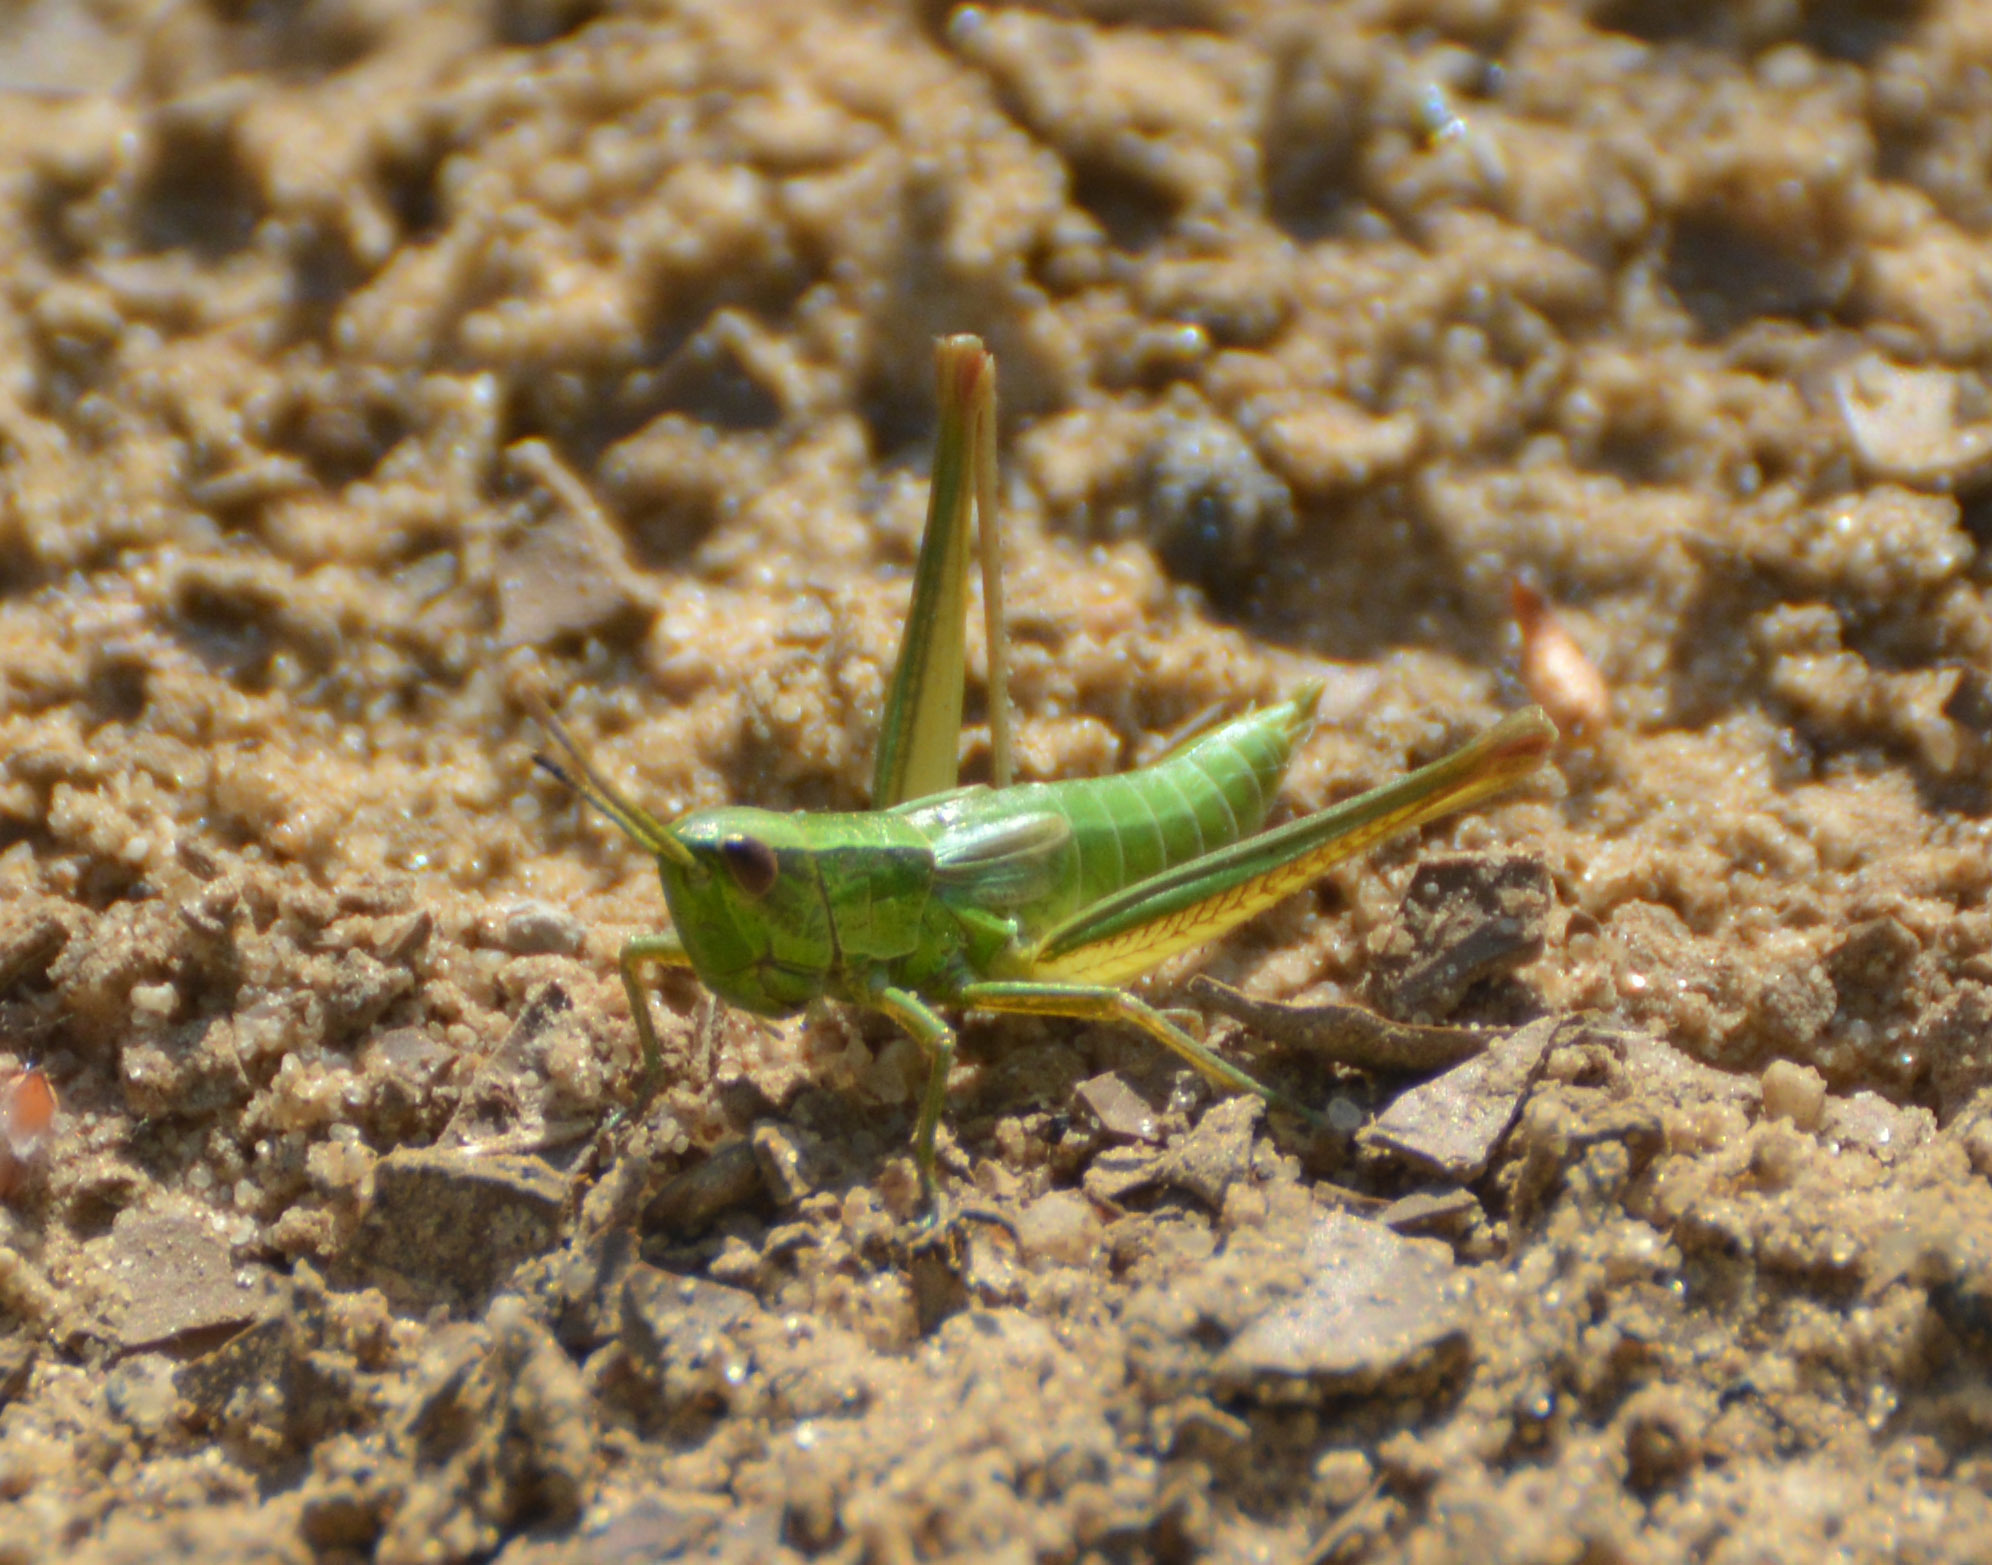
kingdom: Animalia
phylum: Arthropoda
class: Insecta
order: Orthoptera
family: Acrididae
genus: Euthystira
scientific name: Euthystira brachyptera
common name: Small gold grasshopper
